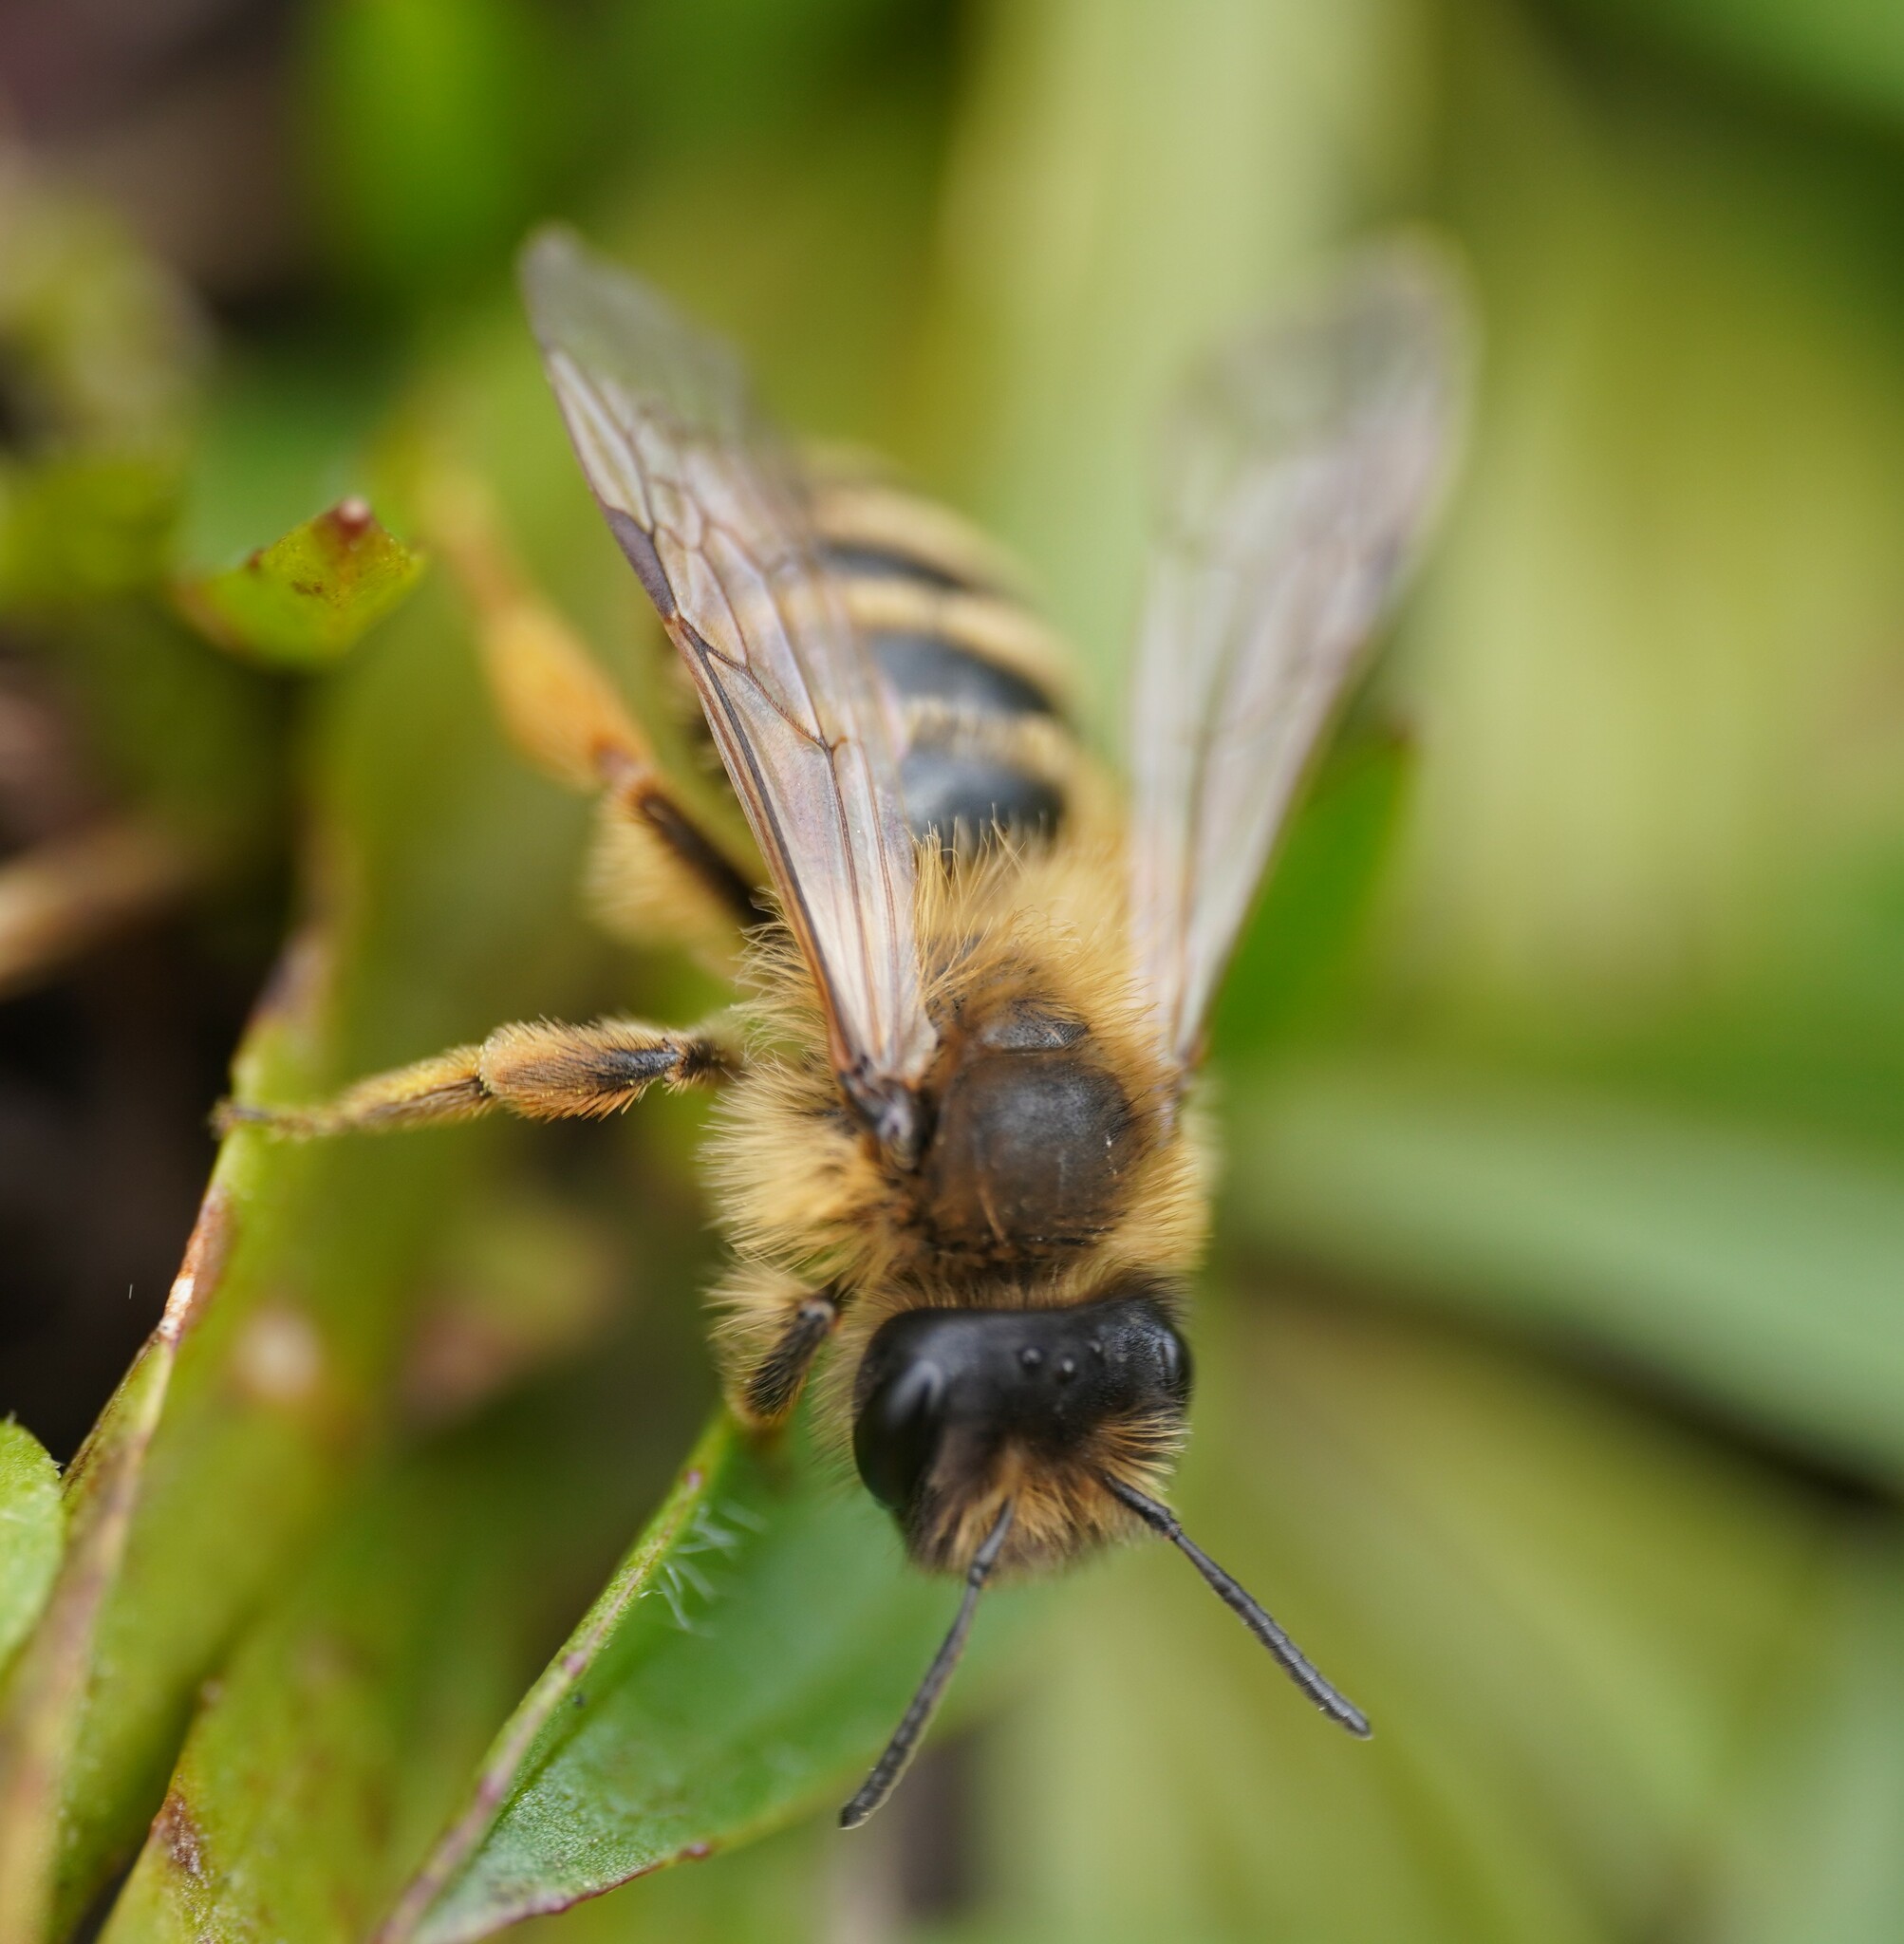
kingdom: Animalia
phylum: Arthropoda
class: Insecta
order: Hymenoptera
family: Andrenidae
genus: Andrena
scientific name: Andrena flavipes
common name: Yellow-legged mining bee
